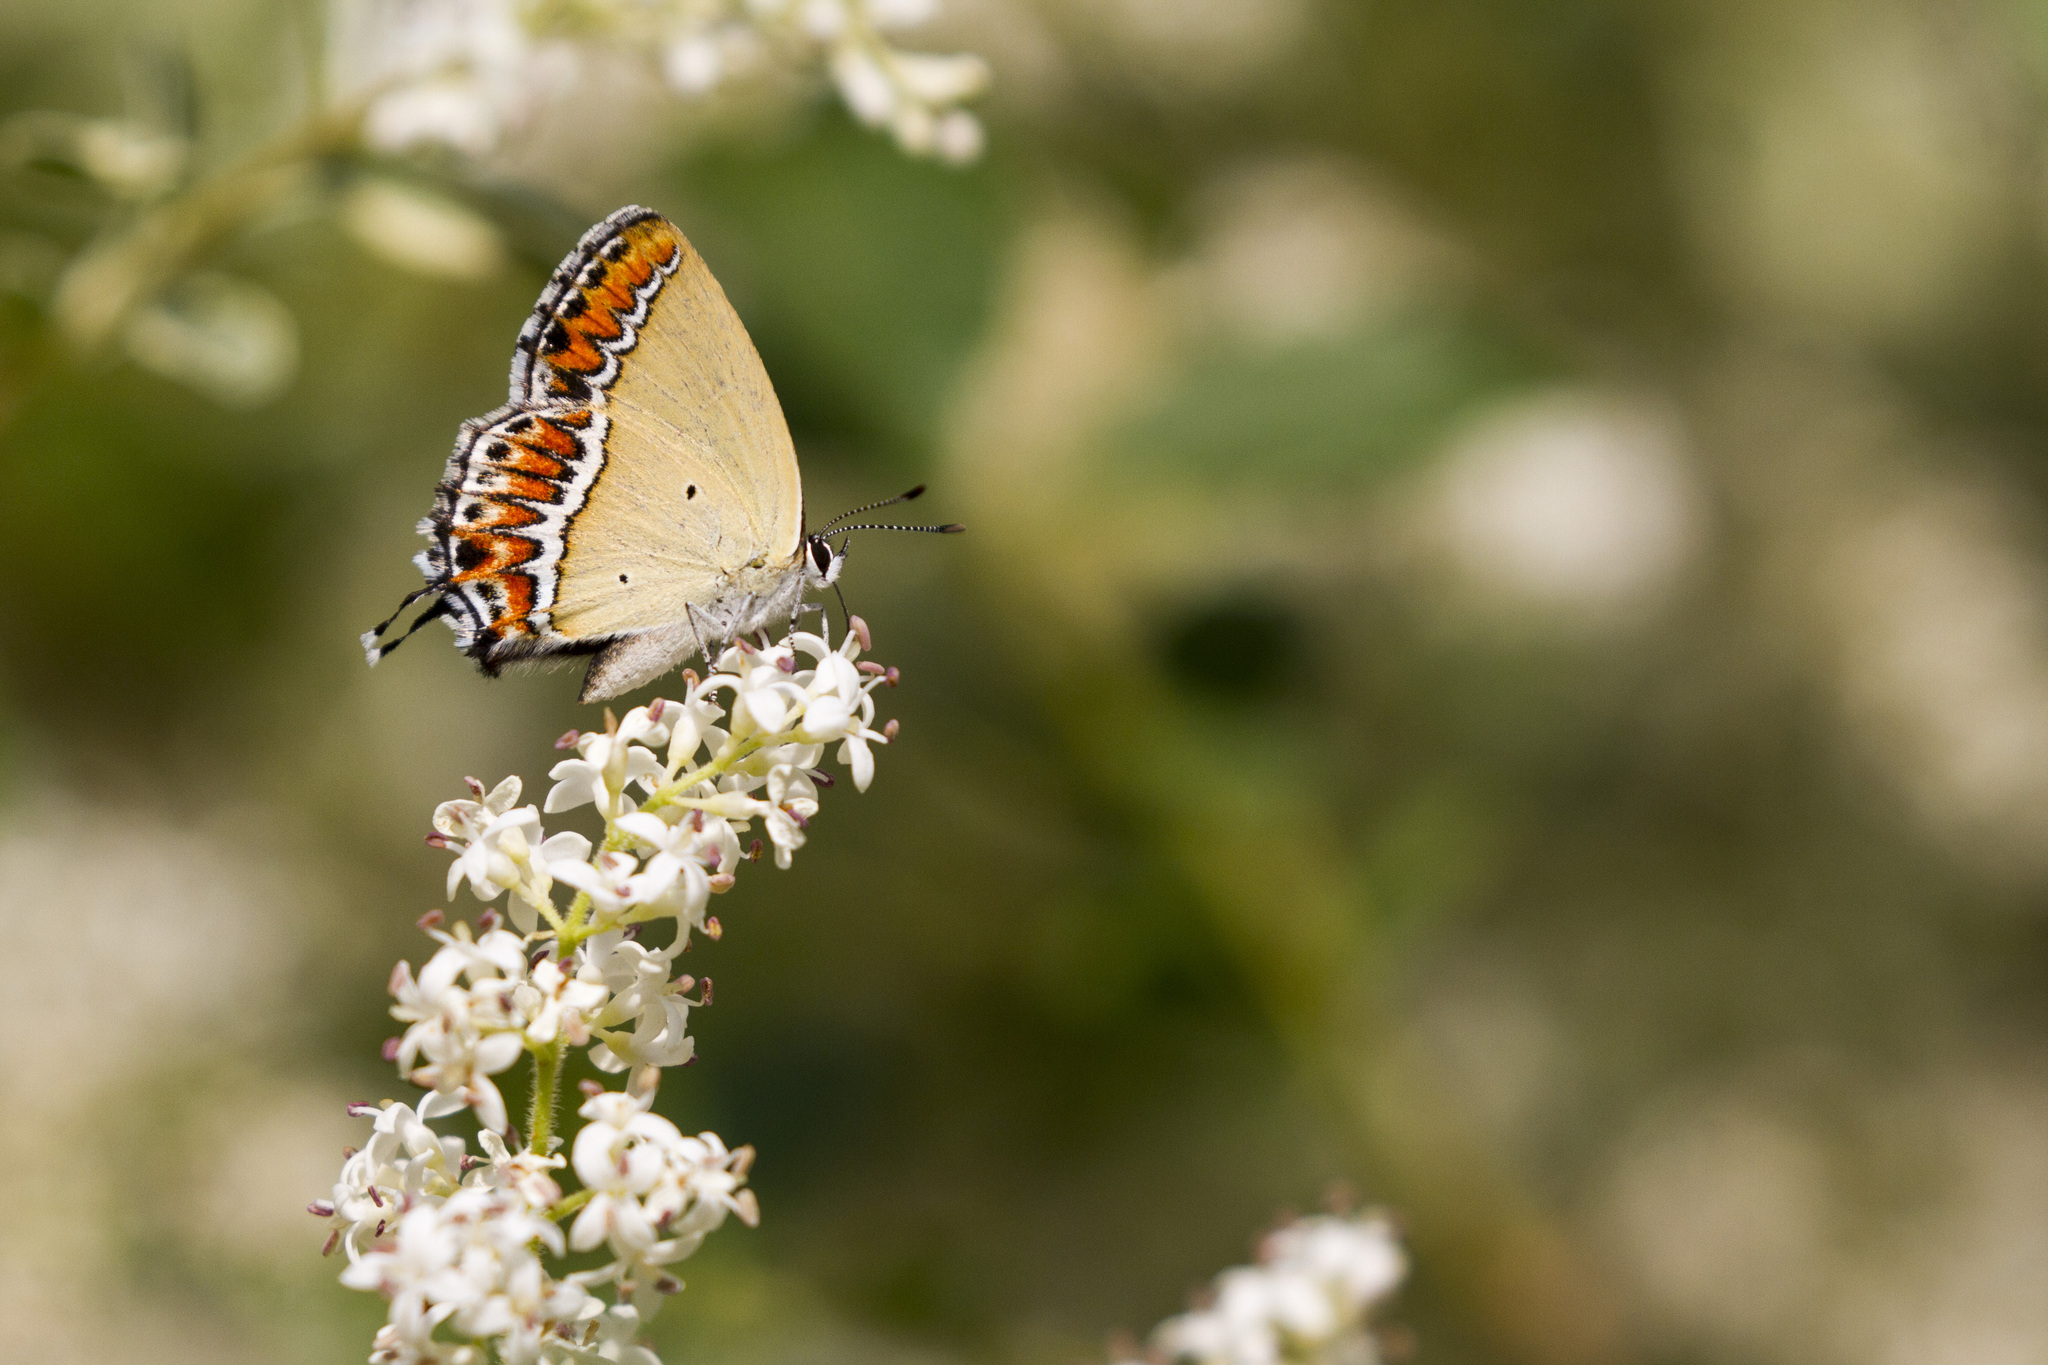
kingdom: Animalia
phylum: Arthropoda
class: Insecta
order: Lepidoptera
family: Lycaenidae
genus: Heliophorus
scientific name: Heliophorus sena
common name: Sorrel sapphire
